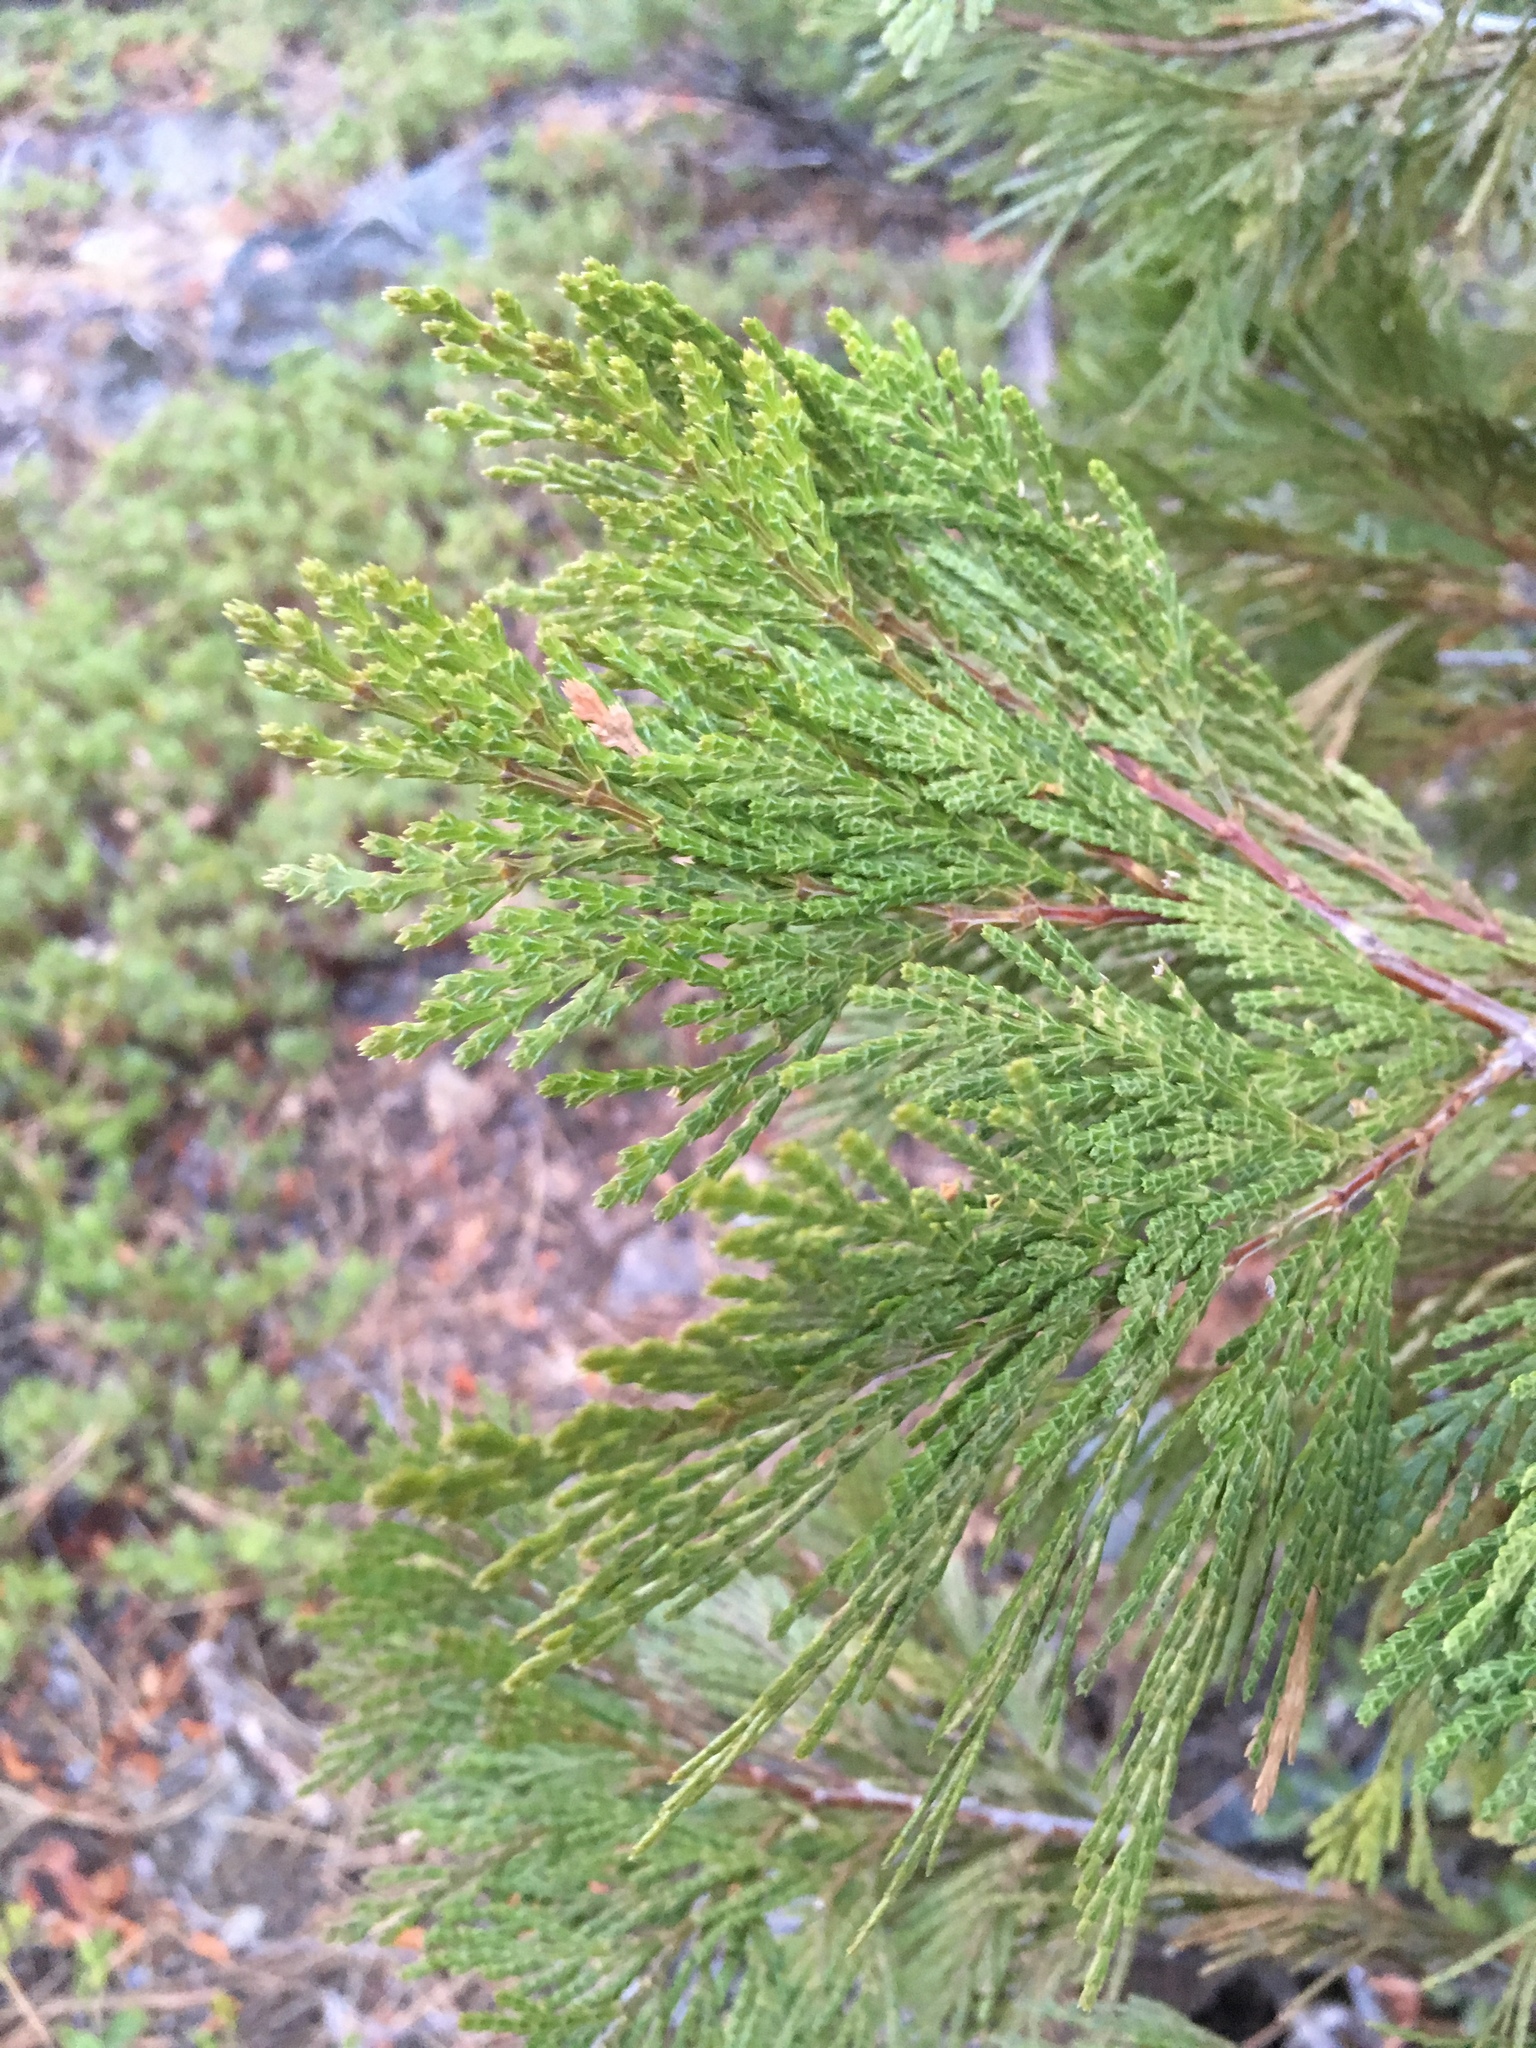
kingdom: Plantae
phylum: Tracheophyta
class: Pinopsida
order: Pinales
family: Cupressaceae
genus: Calocedrus
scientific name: Calocedrus decurrens
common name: Californian incense-cedar
